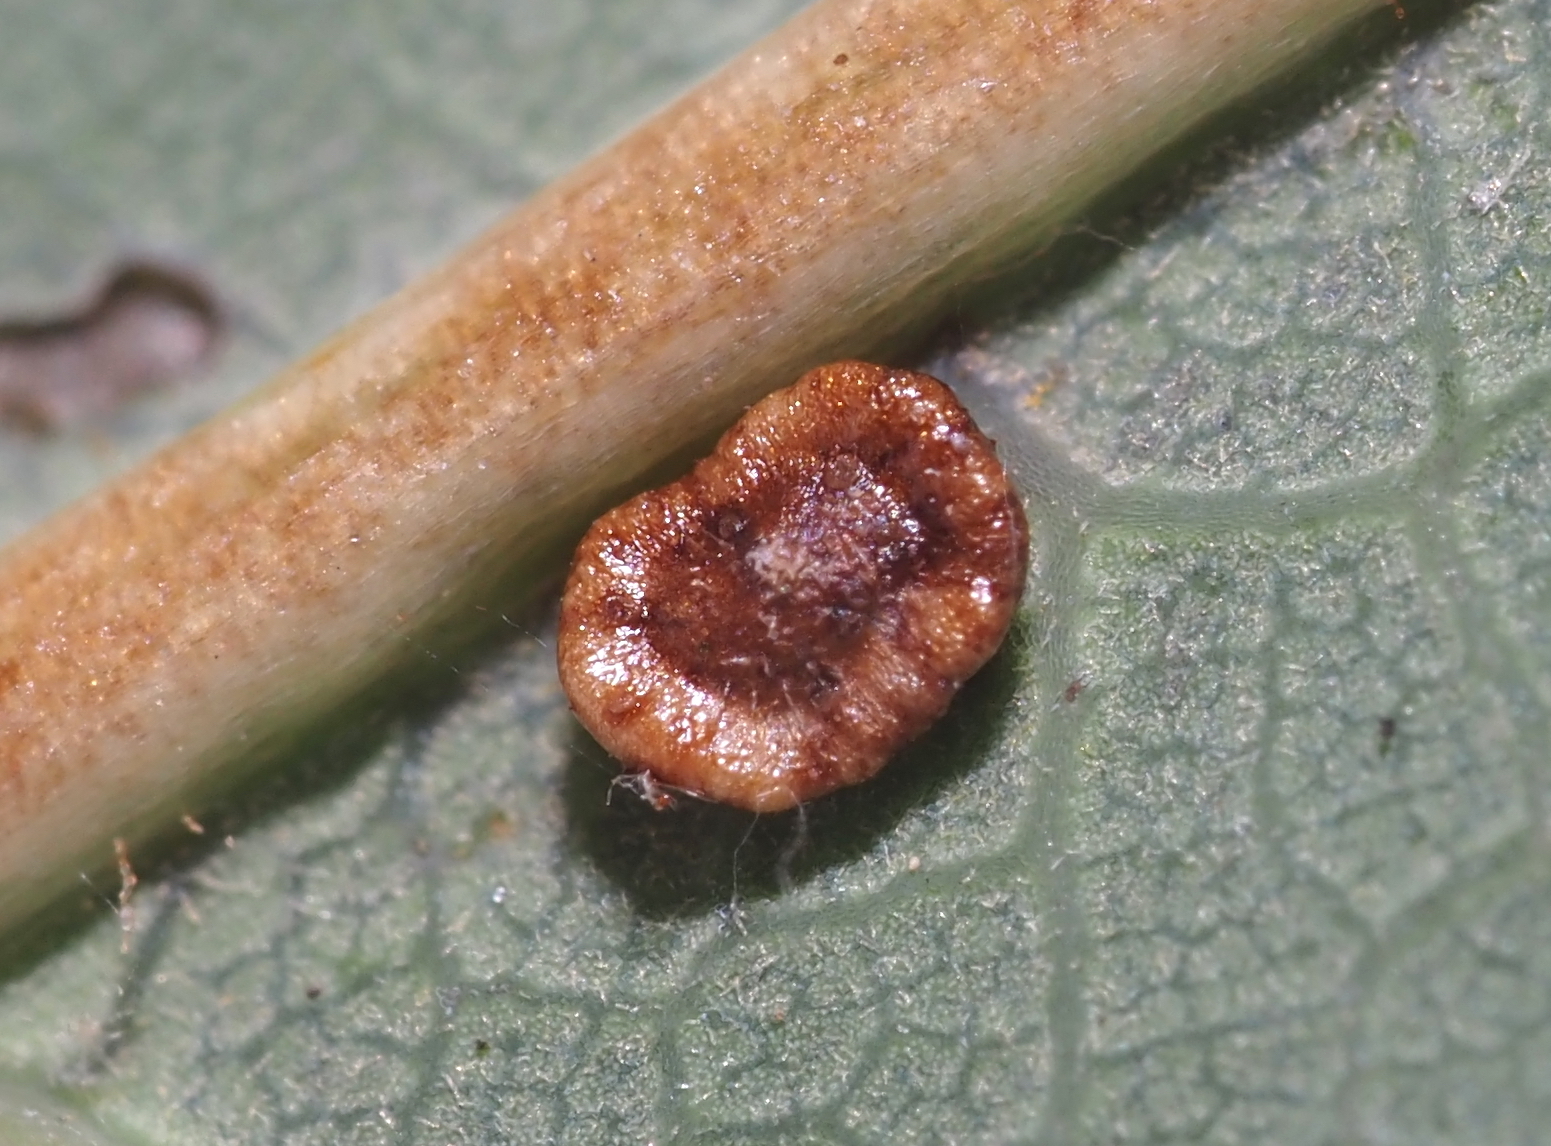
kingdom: Animalia
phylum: Arthropoda
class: Insecta
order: Hymenoptera
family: Cynipidae
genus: Neuroterus
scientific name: Neuroterus
